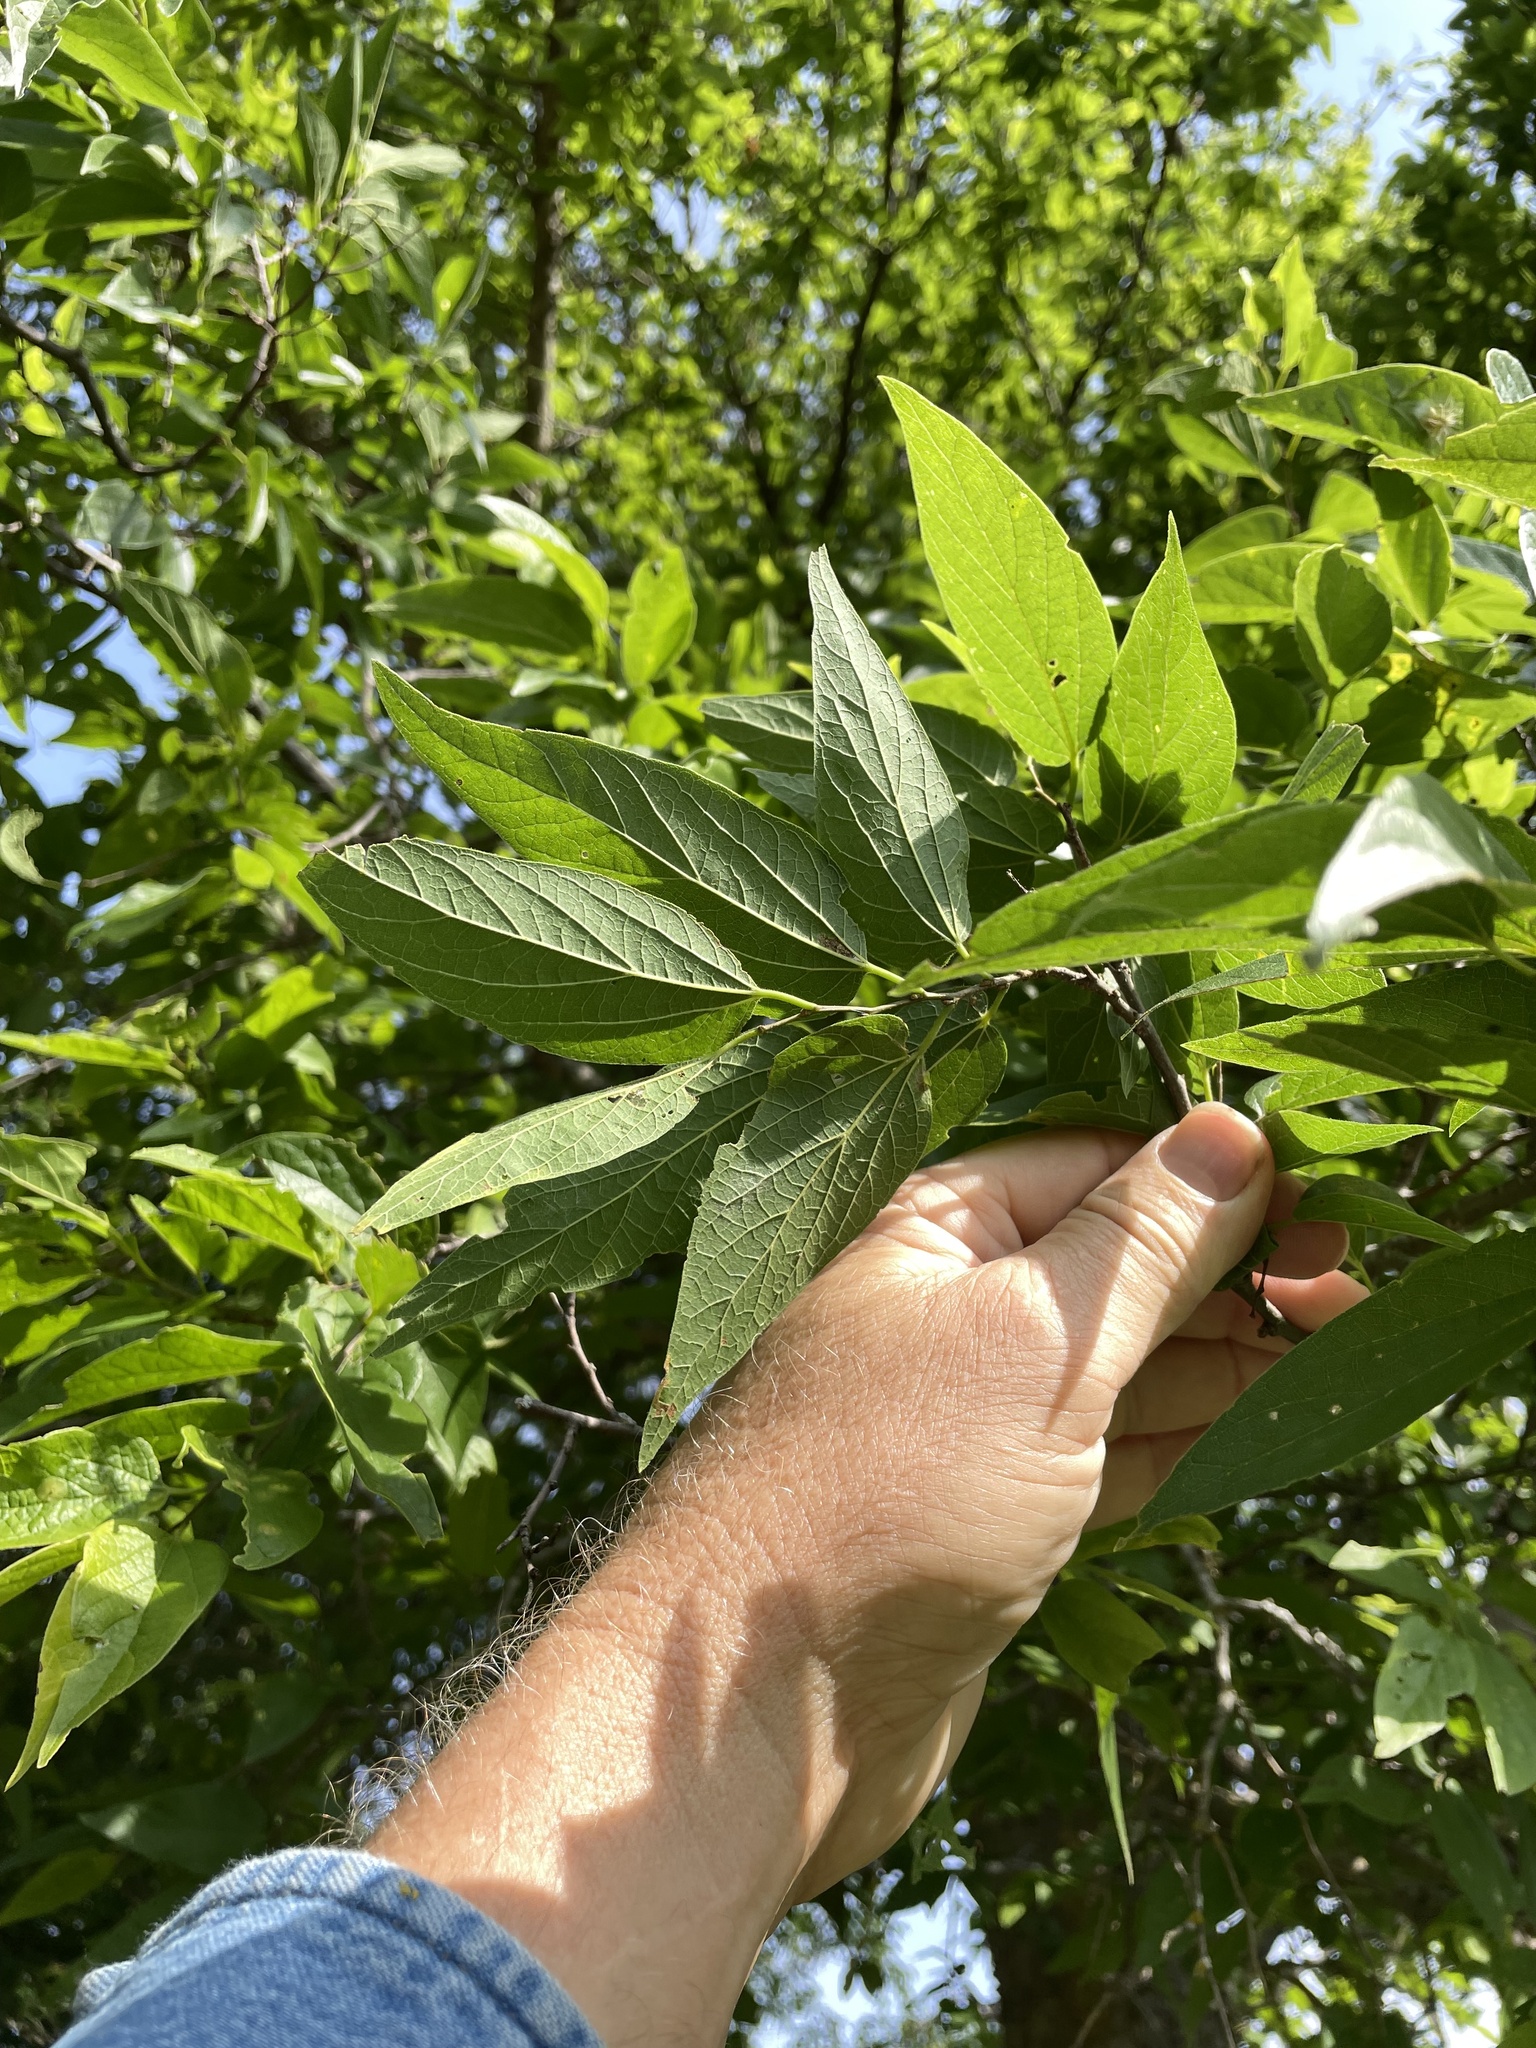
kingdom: Plantae
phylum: Tracheophyta
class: Magnoliopsida
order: Rosales
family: Cannabaceae
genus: Celtis
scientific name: Celtis laevigata
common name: Sugarberry
